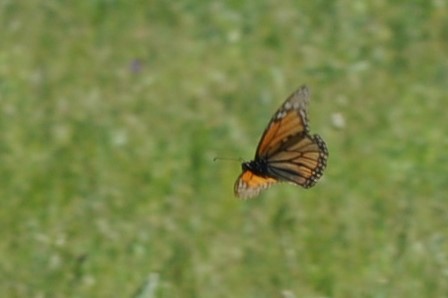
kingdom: Animalia
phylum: Arthropoda
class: Insecta
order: Lepidoptera
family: Nymphalidae
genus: Danaus
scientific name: Danaus plexippus
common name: Monarch
